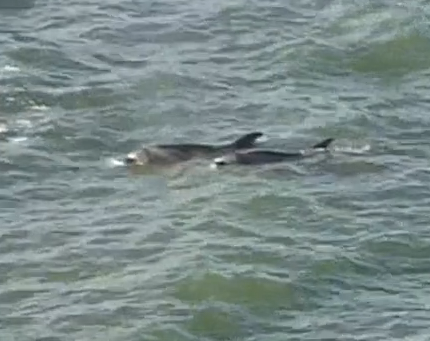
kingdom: Animalia
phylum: Chordata
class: Mammalia
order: Cetacea
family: Delphinidae
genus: Tursiops
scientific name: Tursiops truncatus
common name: Bottlenose dolphin
